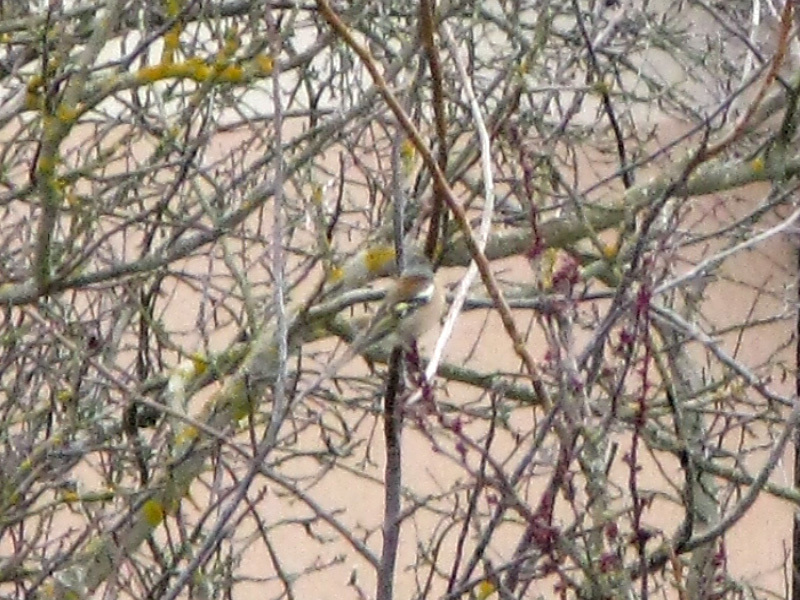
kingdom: Animalia
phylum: Chordata
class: Aves
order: Passeriformes
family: Fringillidae
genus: Fringilla
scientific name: Fringilla coelebs
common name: Common chaffinch
